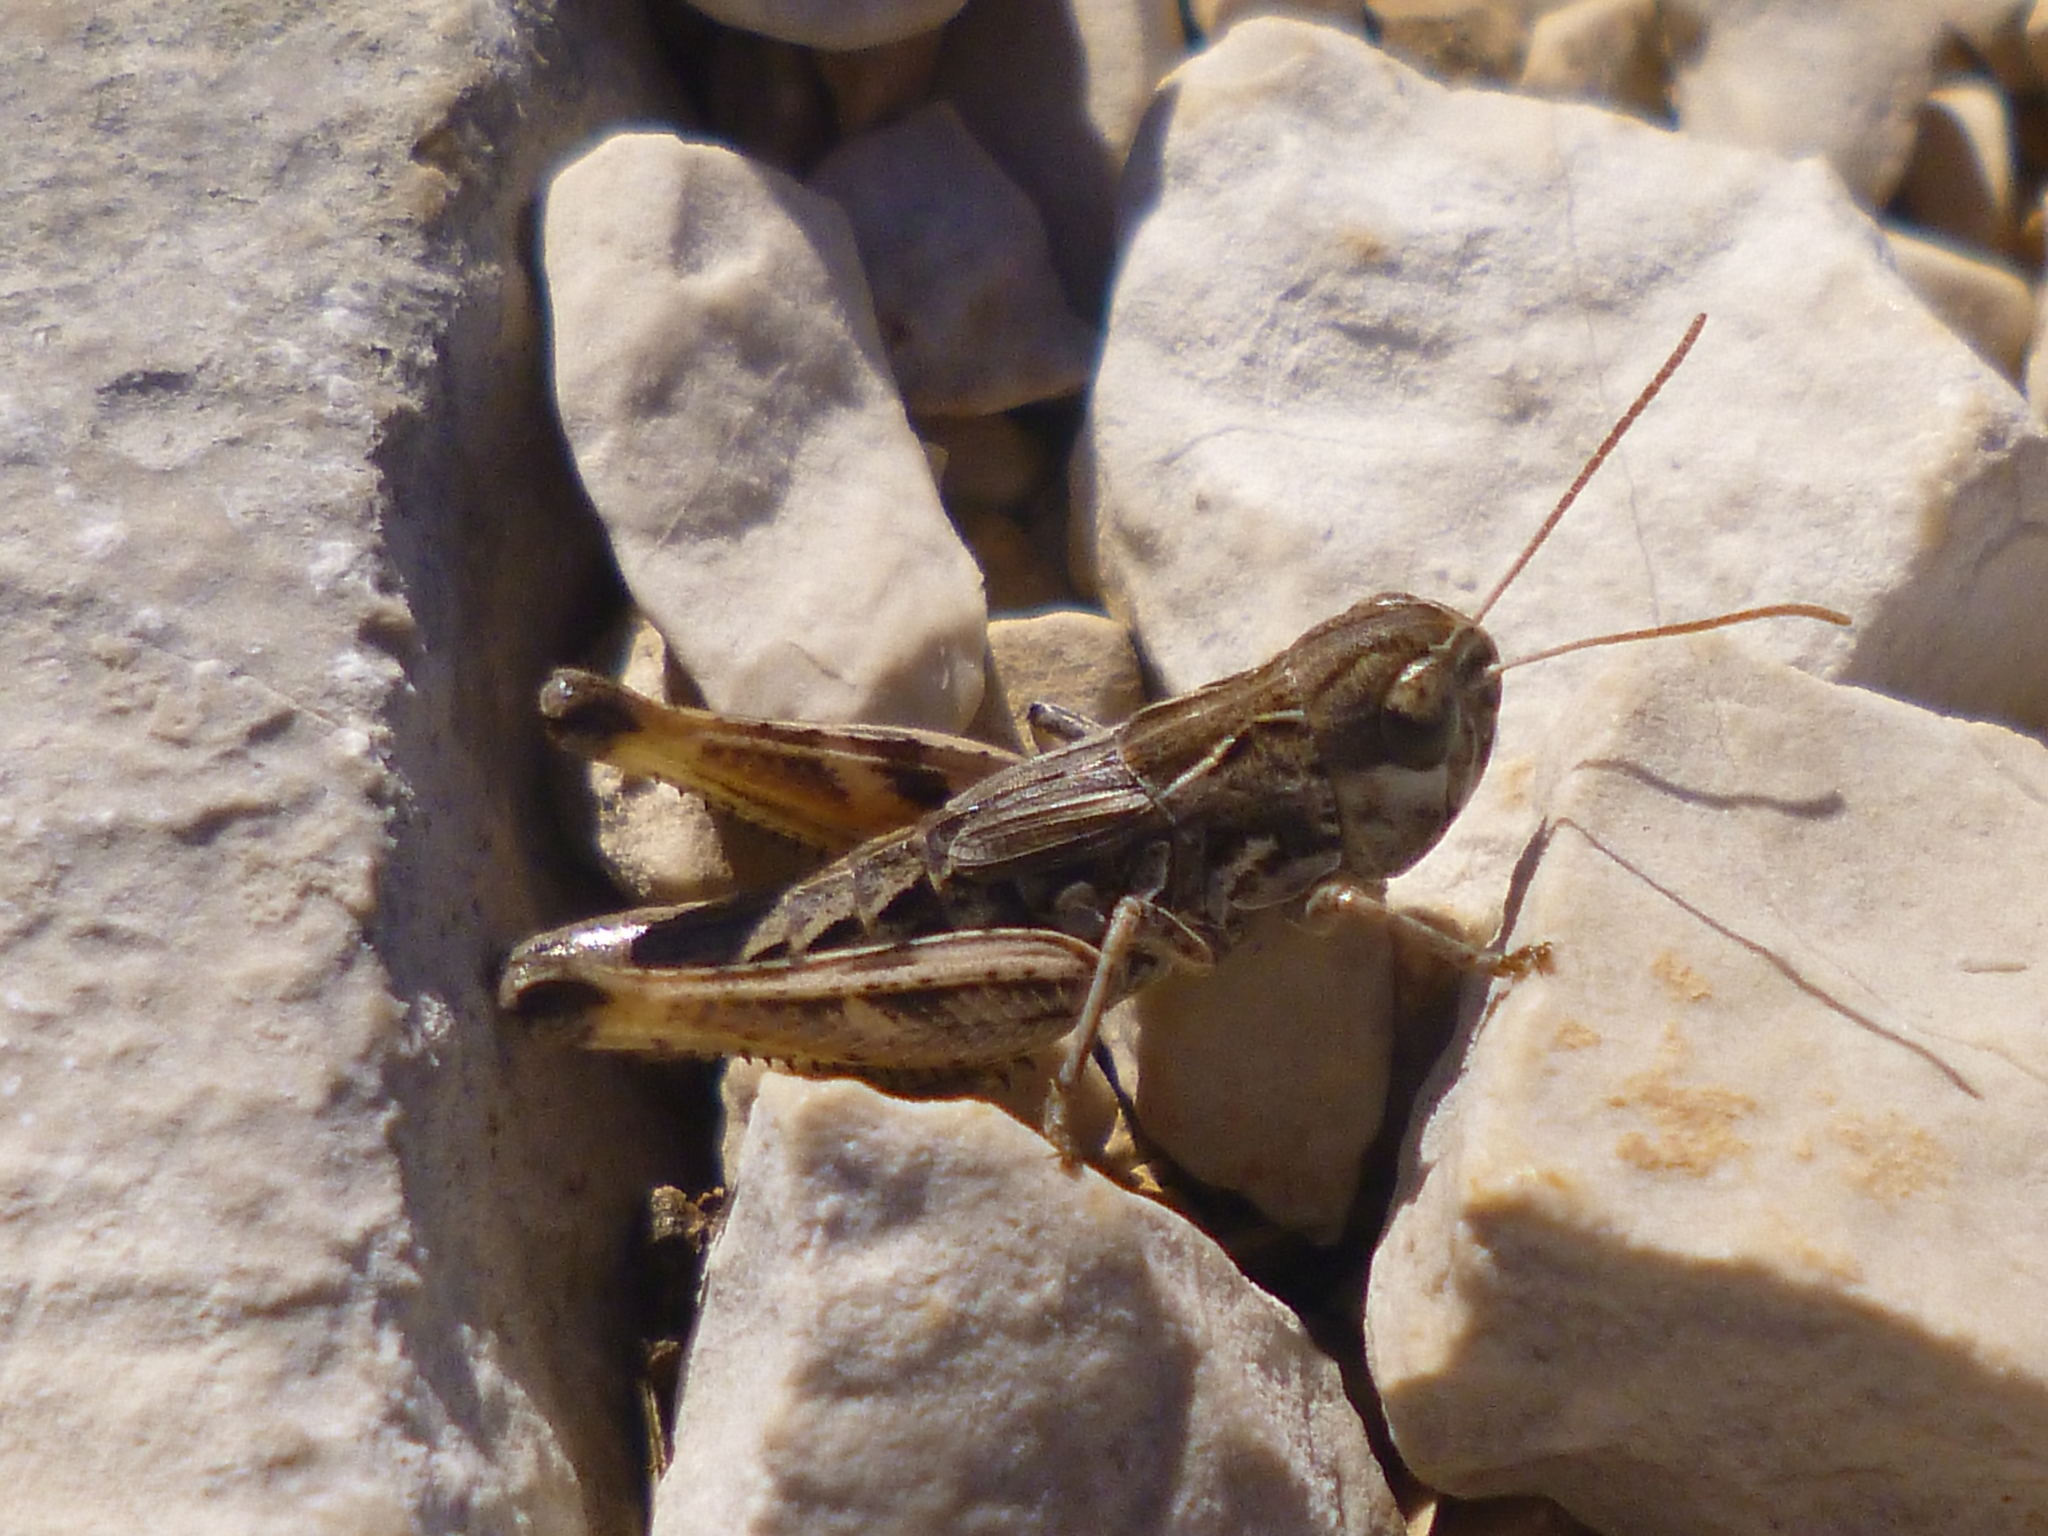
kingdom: Animalia
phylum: Arthropoda
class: Insecta
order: Orthoptera
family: Acrididae
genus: Rammeihippus
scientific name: Rammeihippus dinaricus
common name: Dinarian grasshopper
